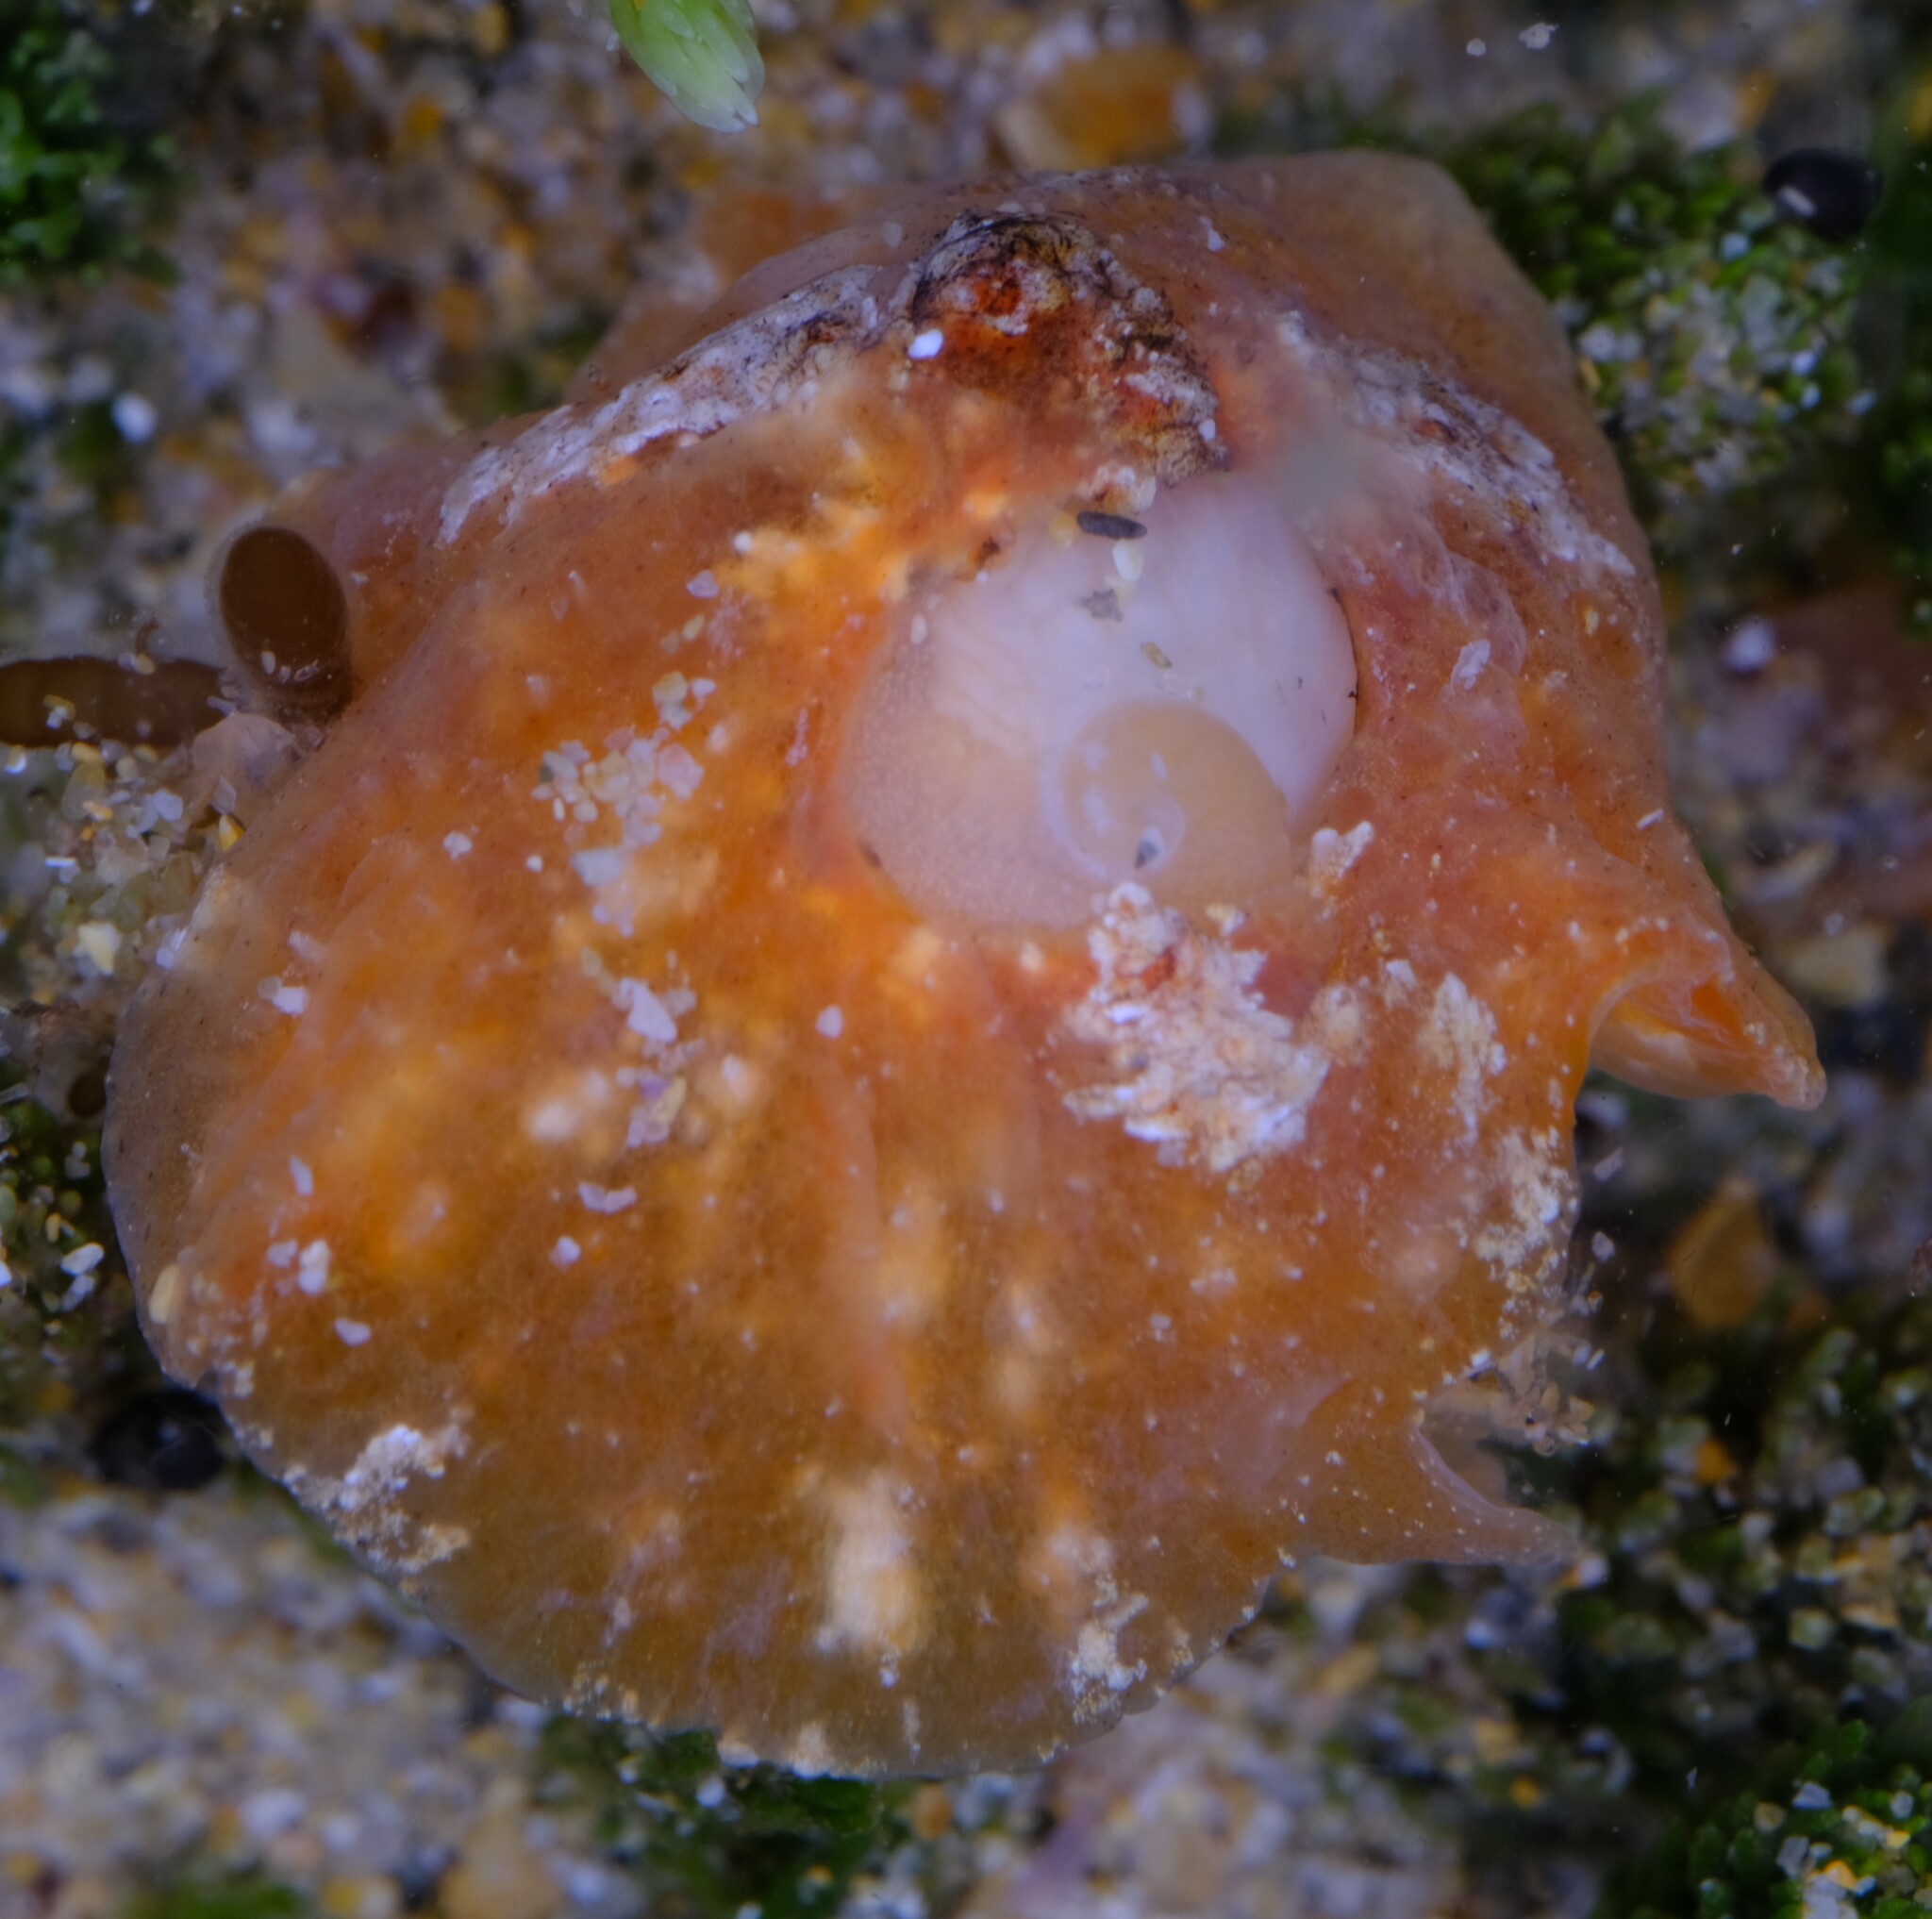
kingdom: Animalia
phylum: Mollusca
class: Gastropoda
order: Littorinimorpha
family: Velutinidae
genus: Djiboutia
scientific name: Djiboutia australis
